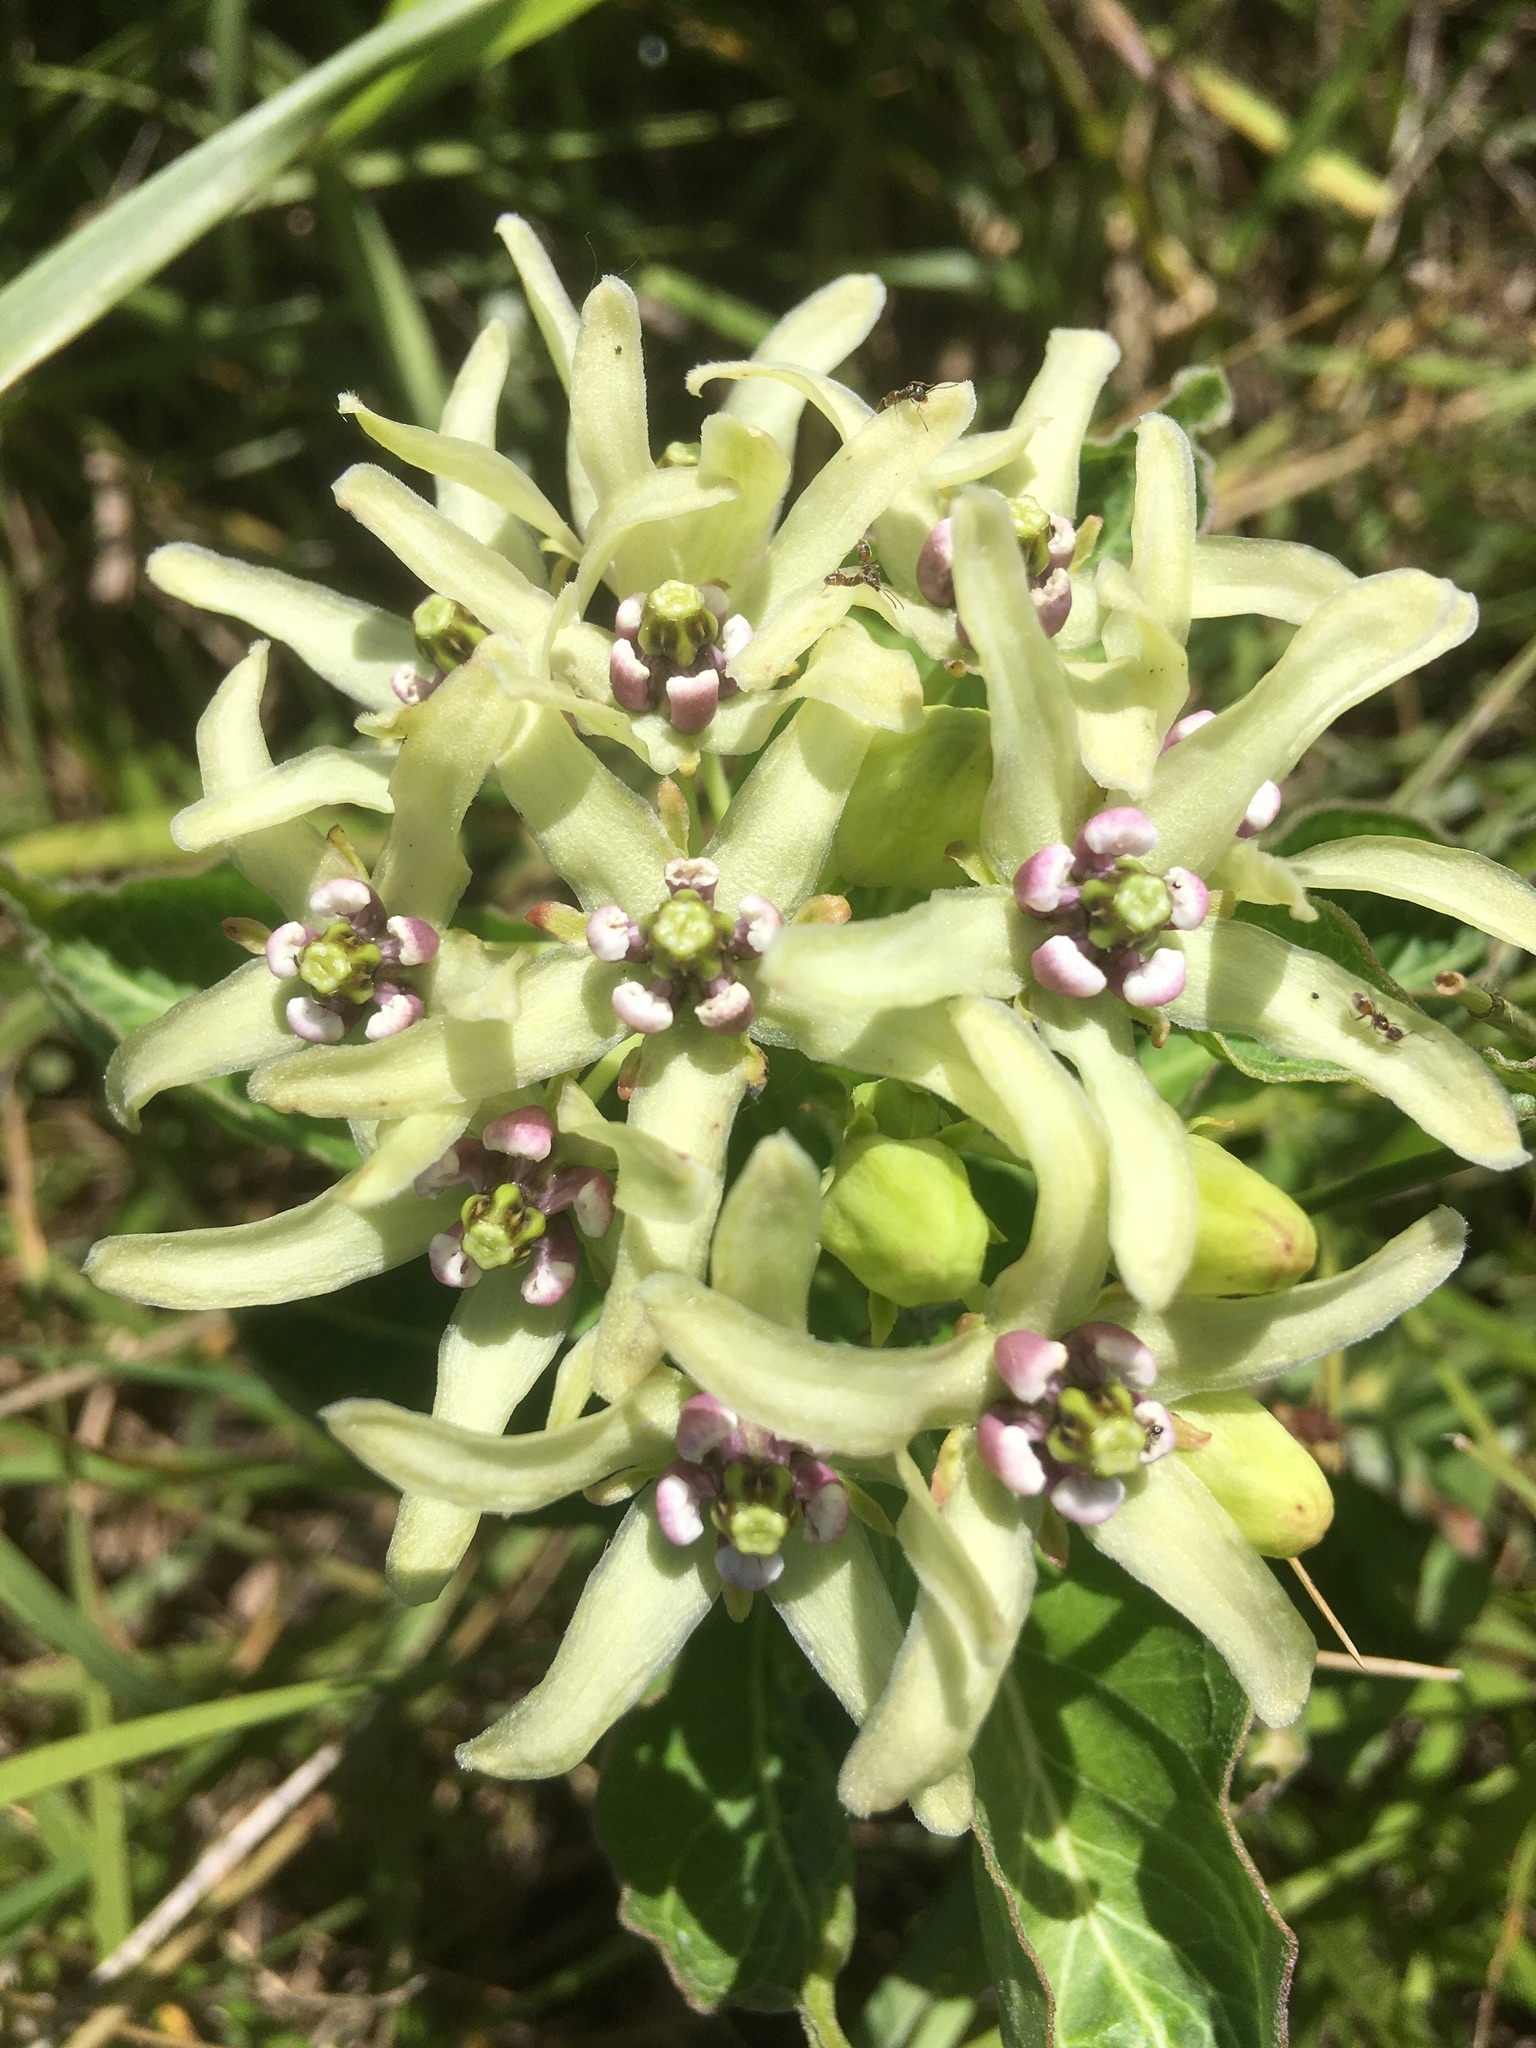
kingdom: Plantae
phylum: Tracheophyta
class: Magnoliopsida
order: Gentianales
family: Apocynaceae
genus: Asclepias
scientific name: Asclepias viridis
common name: Antelope-horns
